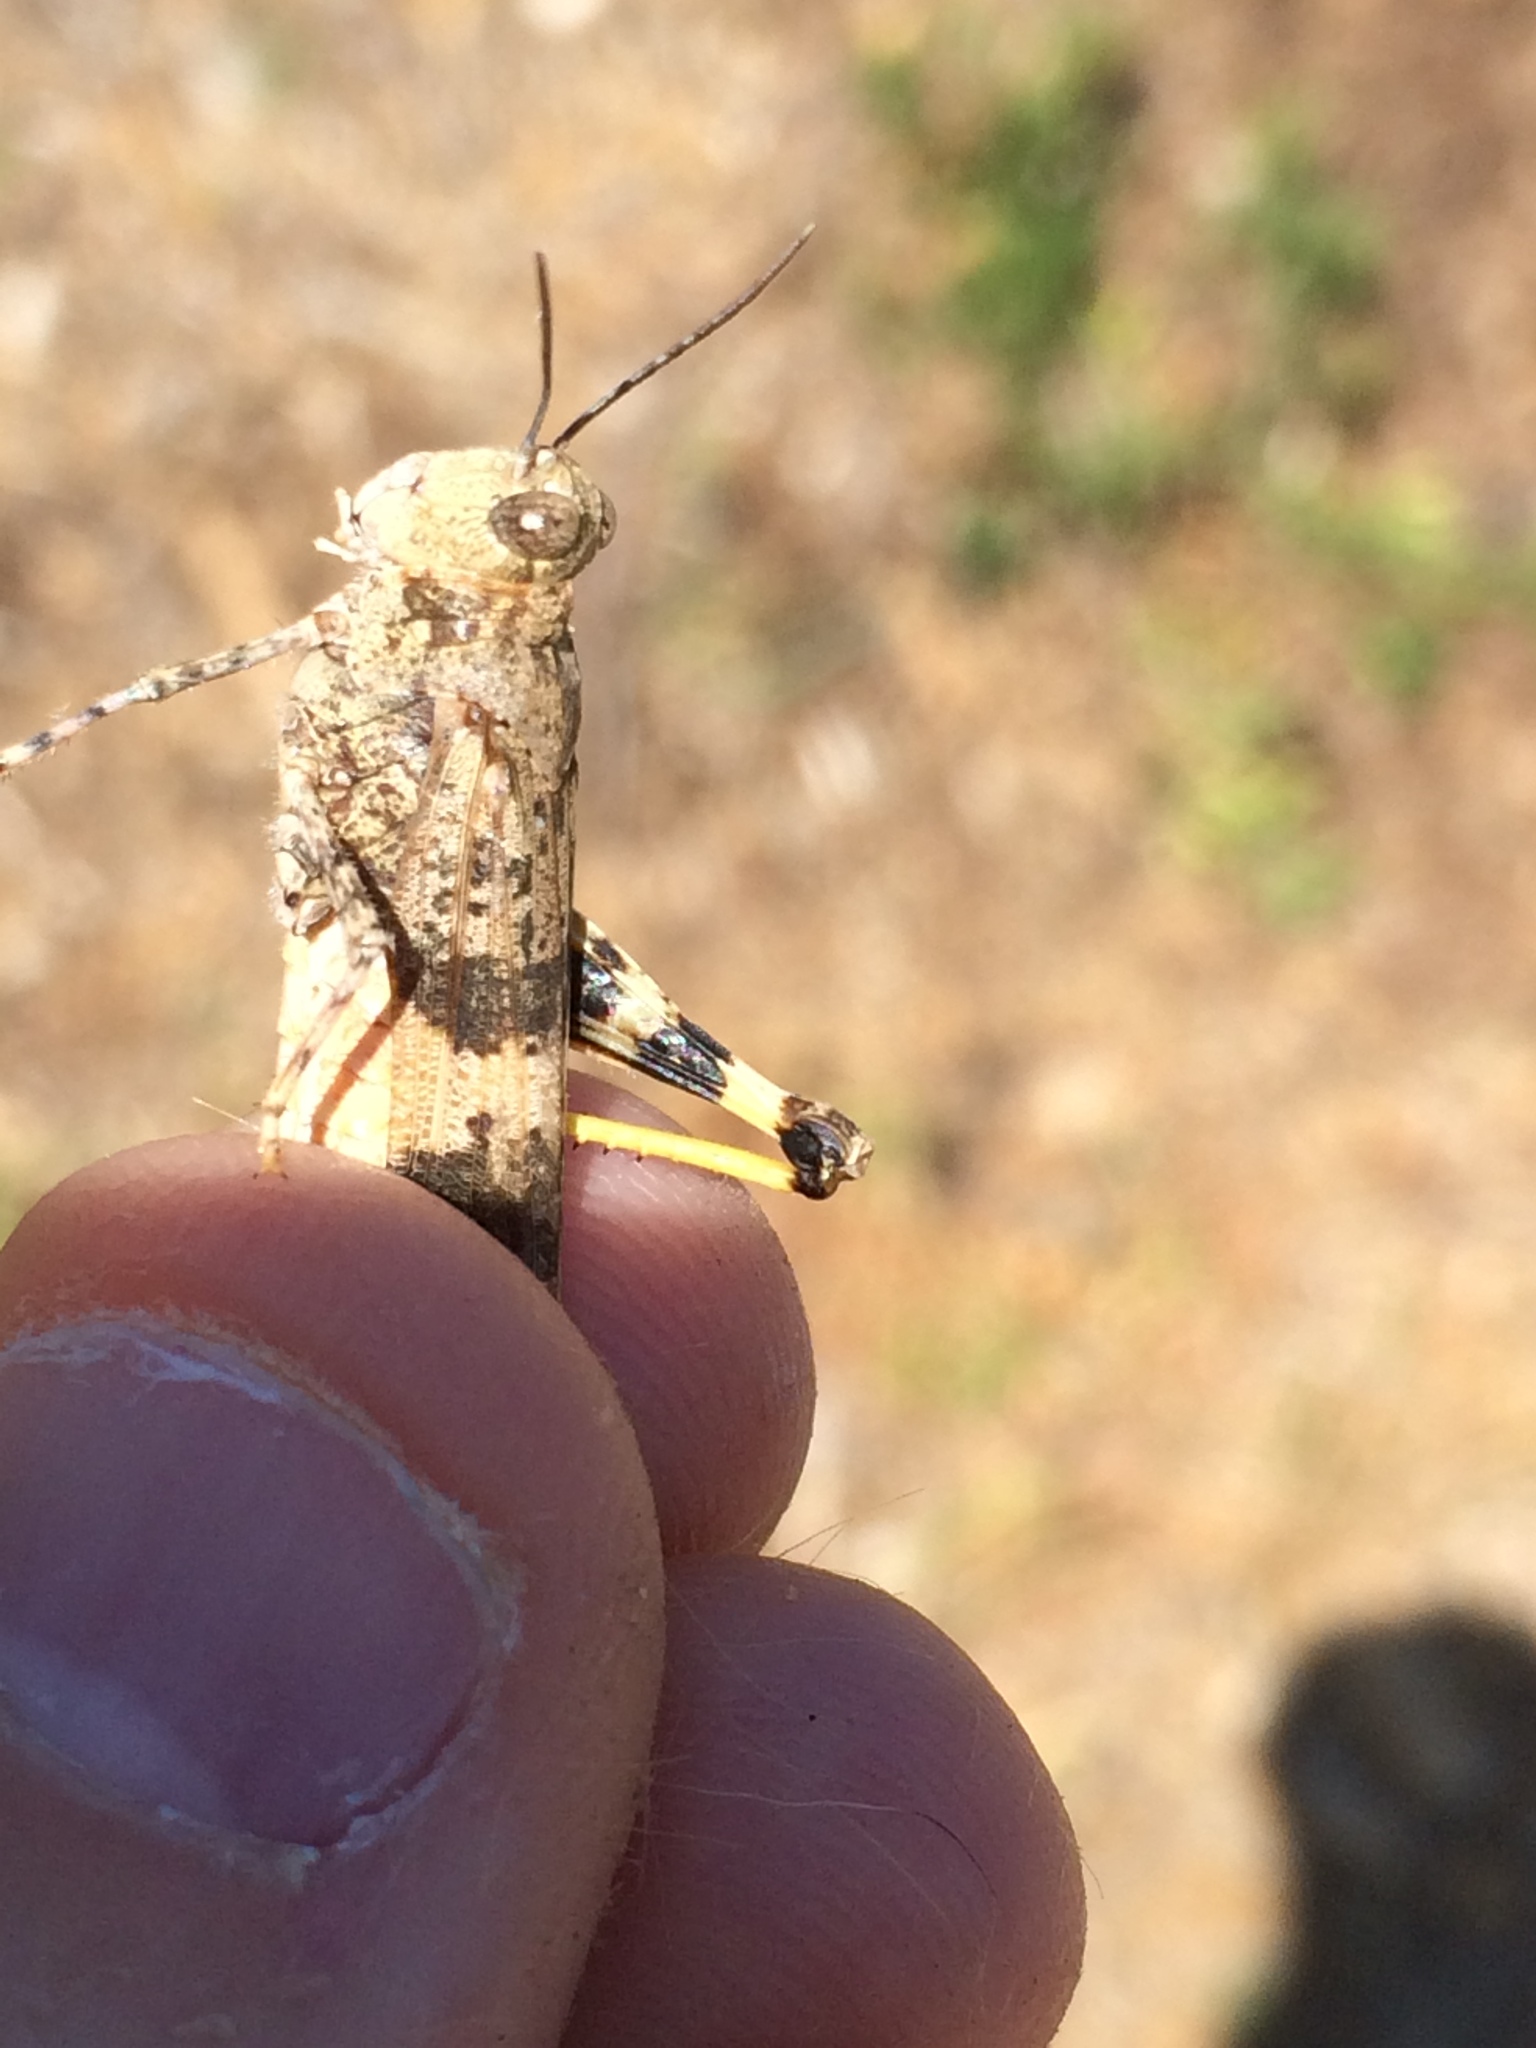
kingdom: Animalia
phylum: Arthropoda
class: Insecta
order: Orthoptera
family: Acrididae
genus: Trimerotropis
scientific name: Trimerotropis pallidipennis
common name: Pallid-winged grasshopper
